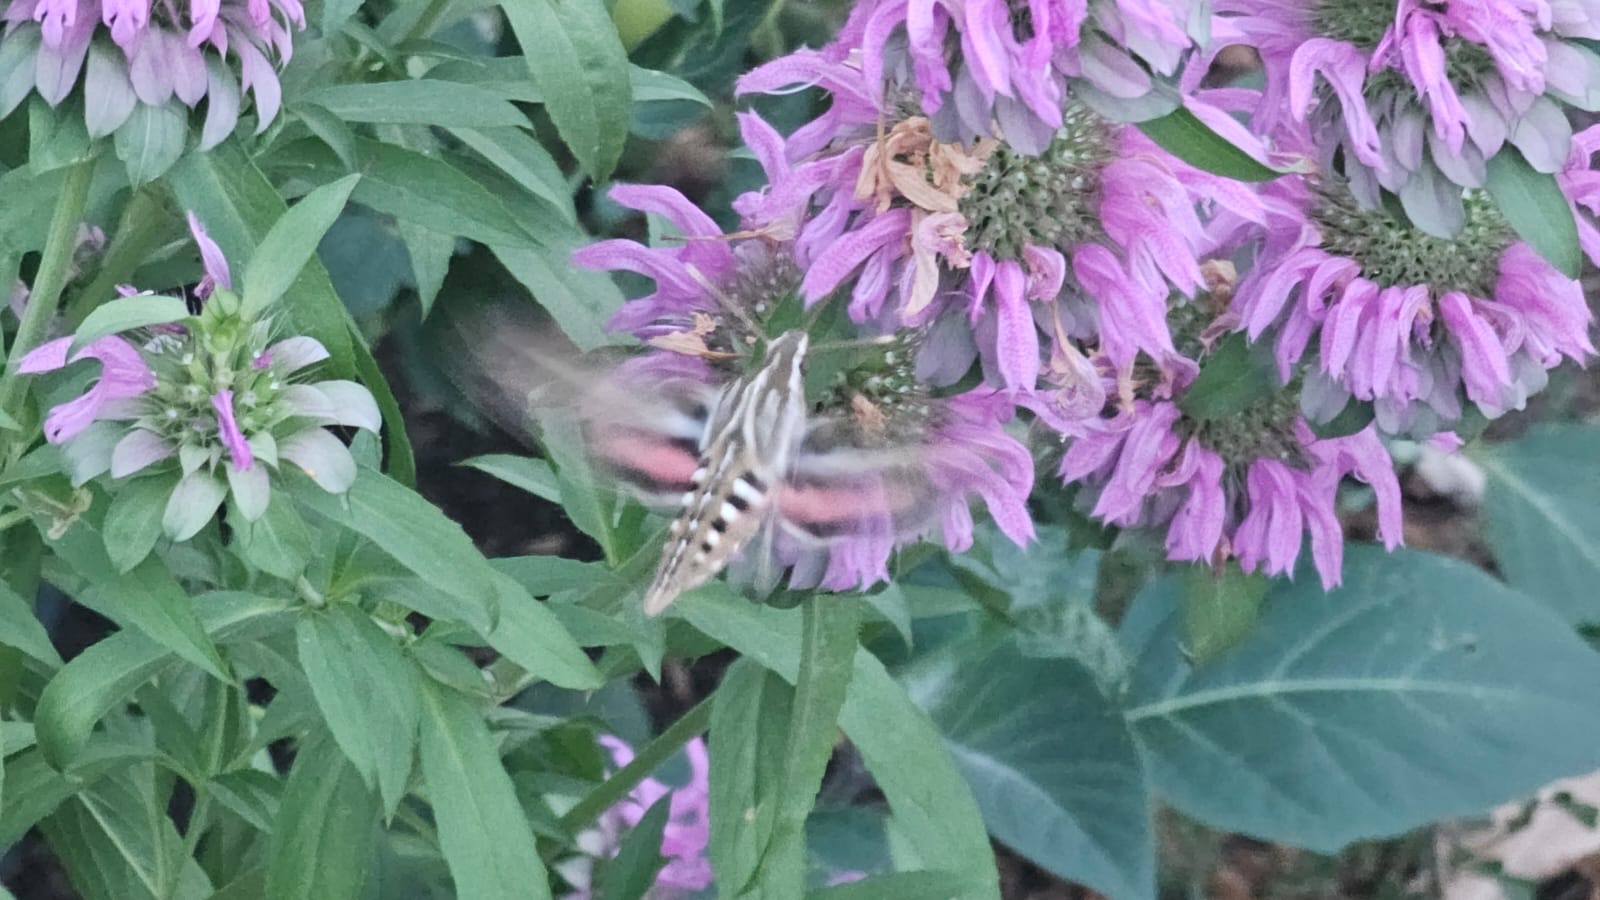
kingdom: Animalia
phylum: Arthropoda
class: Insecta
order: Lepidoptera
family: Sphingidae
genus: Hyles
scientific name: Hyles lineata
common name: White-lined sphinx
